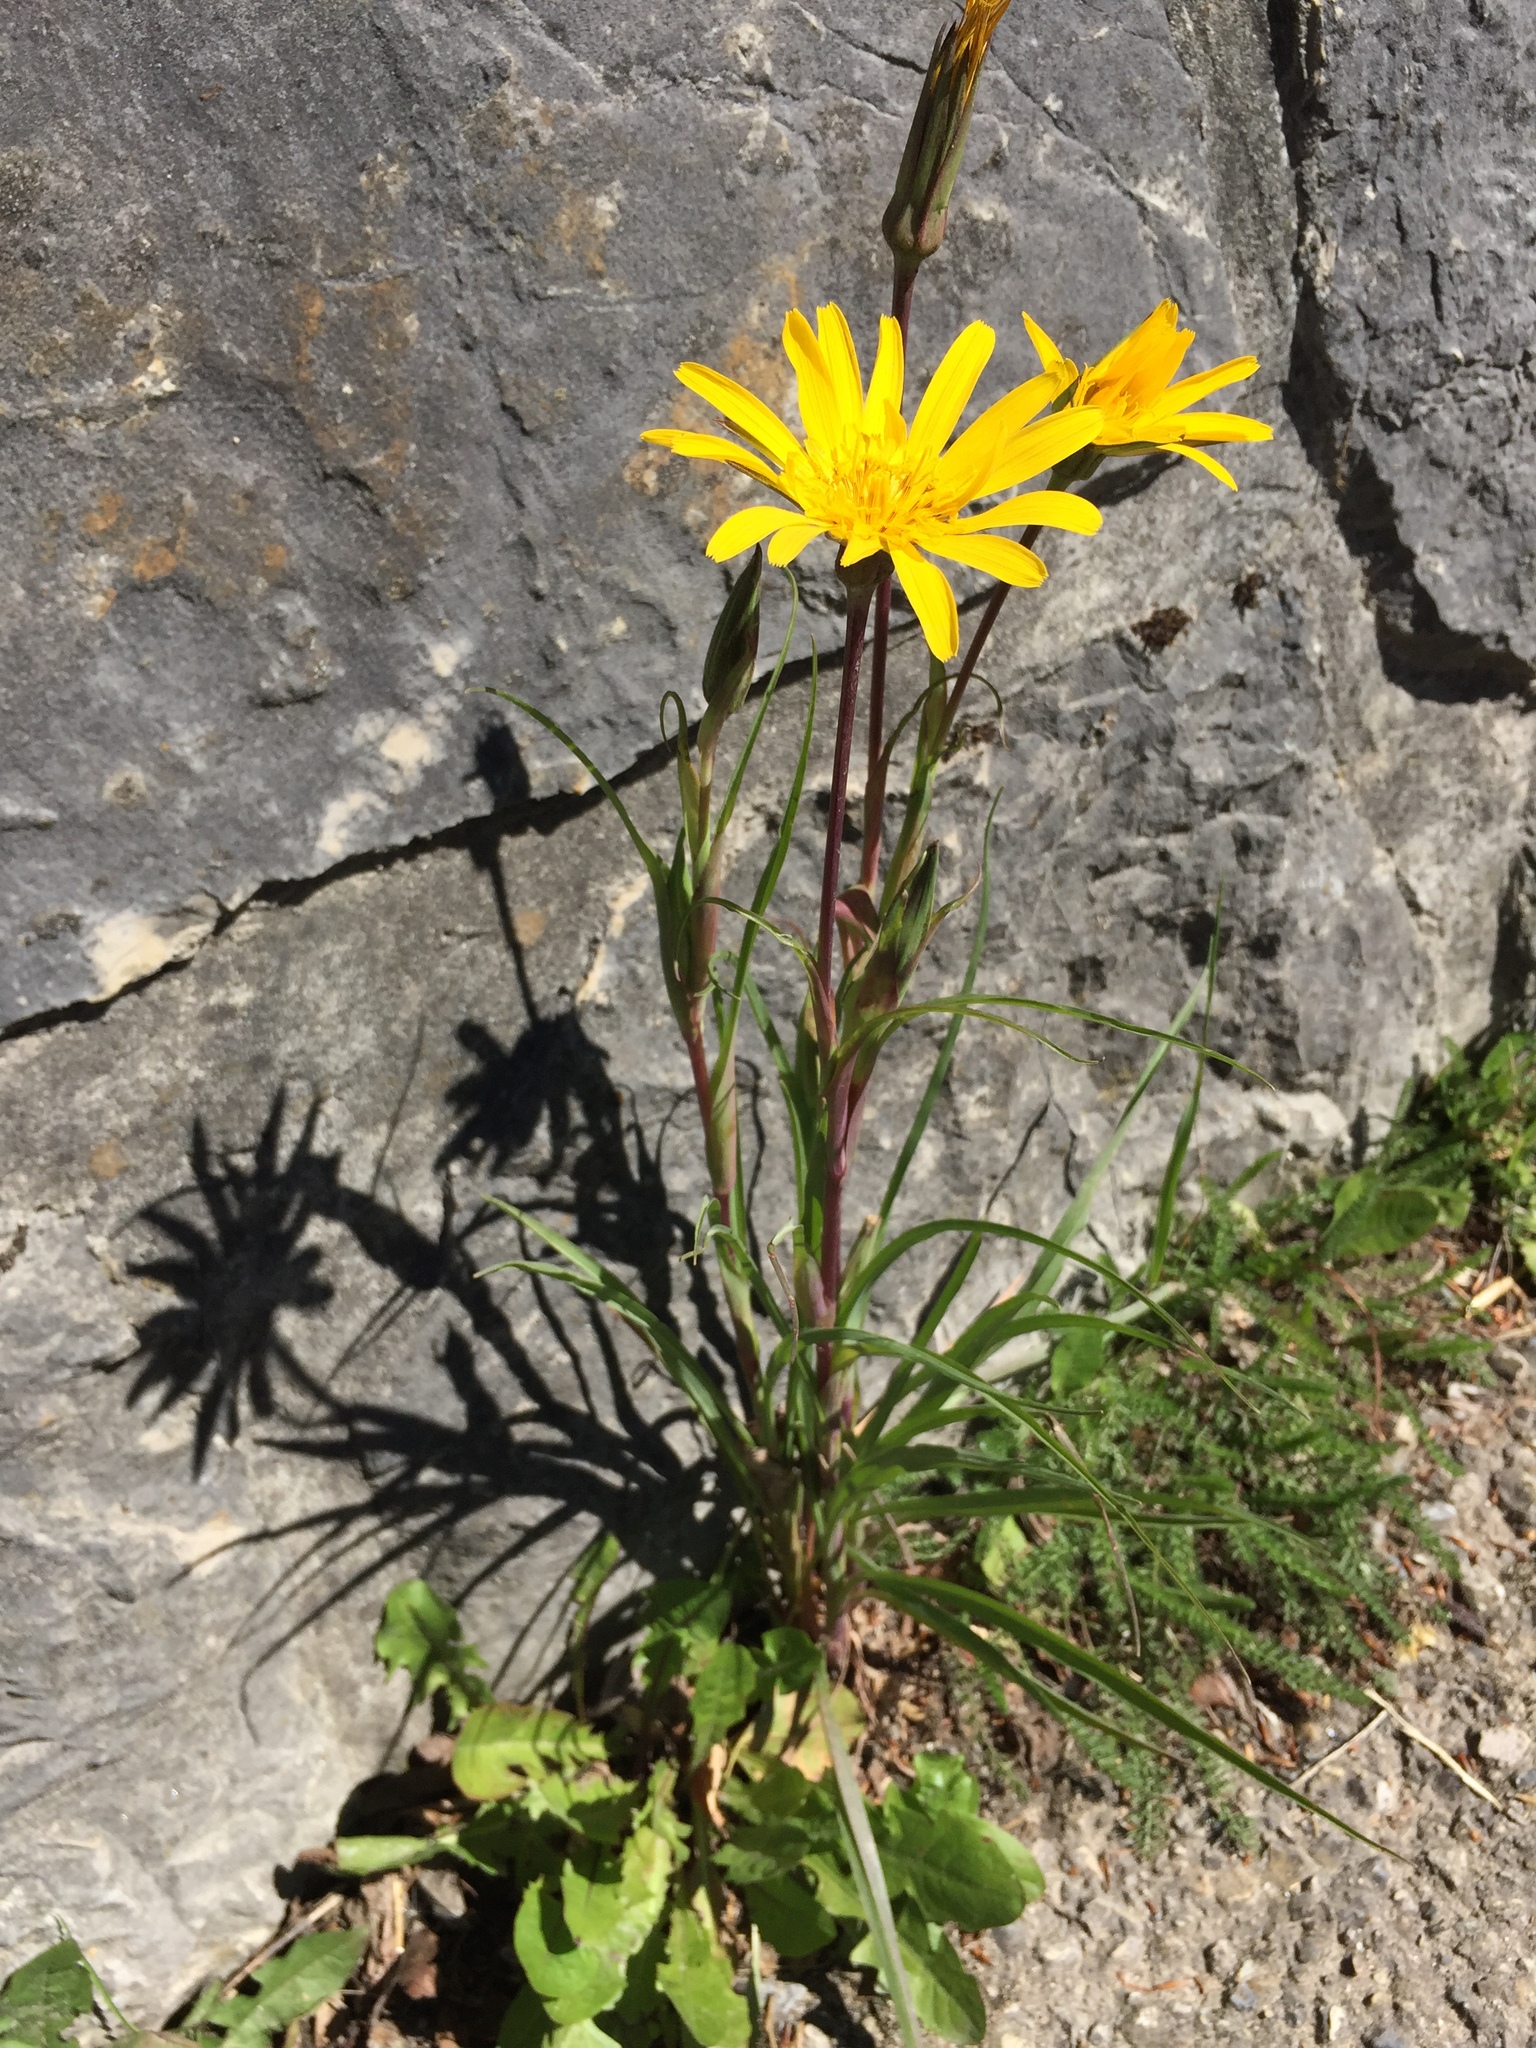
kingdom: Plantae
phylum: Tracheophyta
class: Magnoliopsida
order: Asterales
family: Asteraceae
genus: Tragopogon
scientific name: Tragopogon pratensis
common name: Goat's-beard
